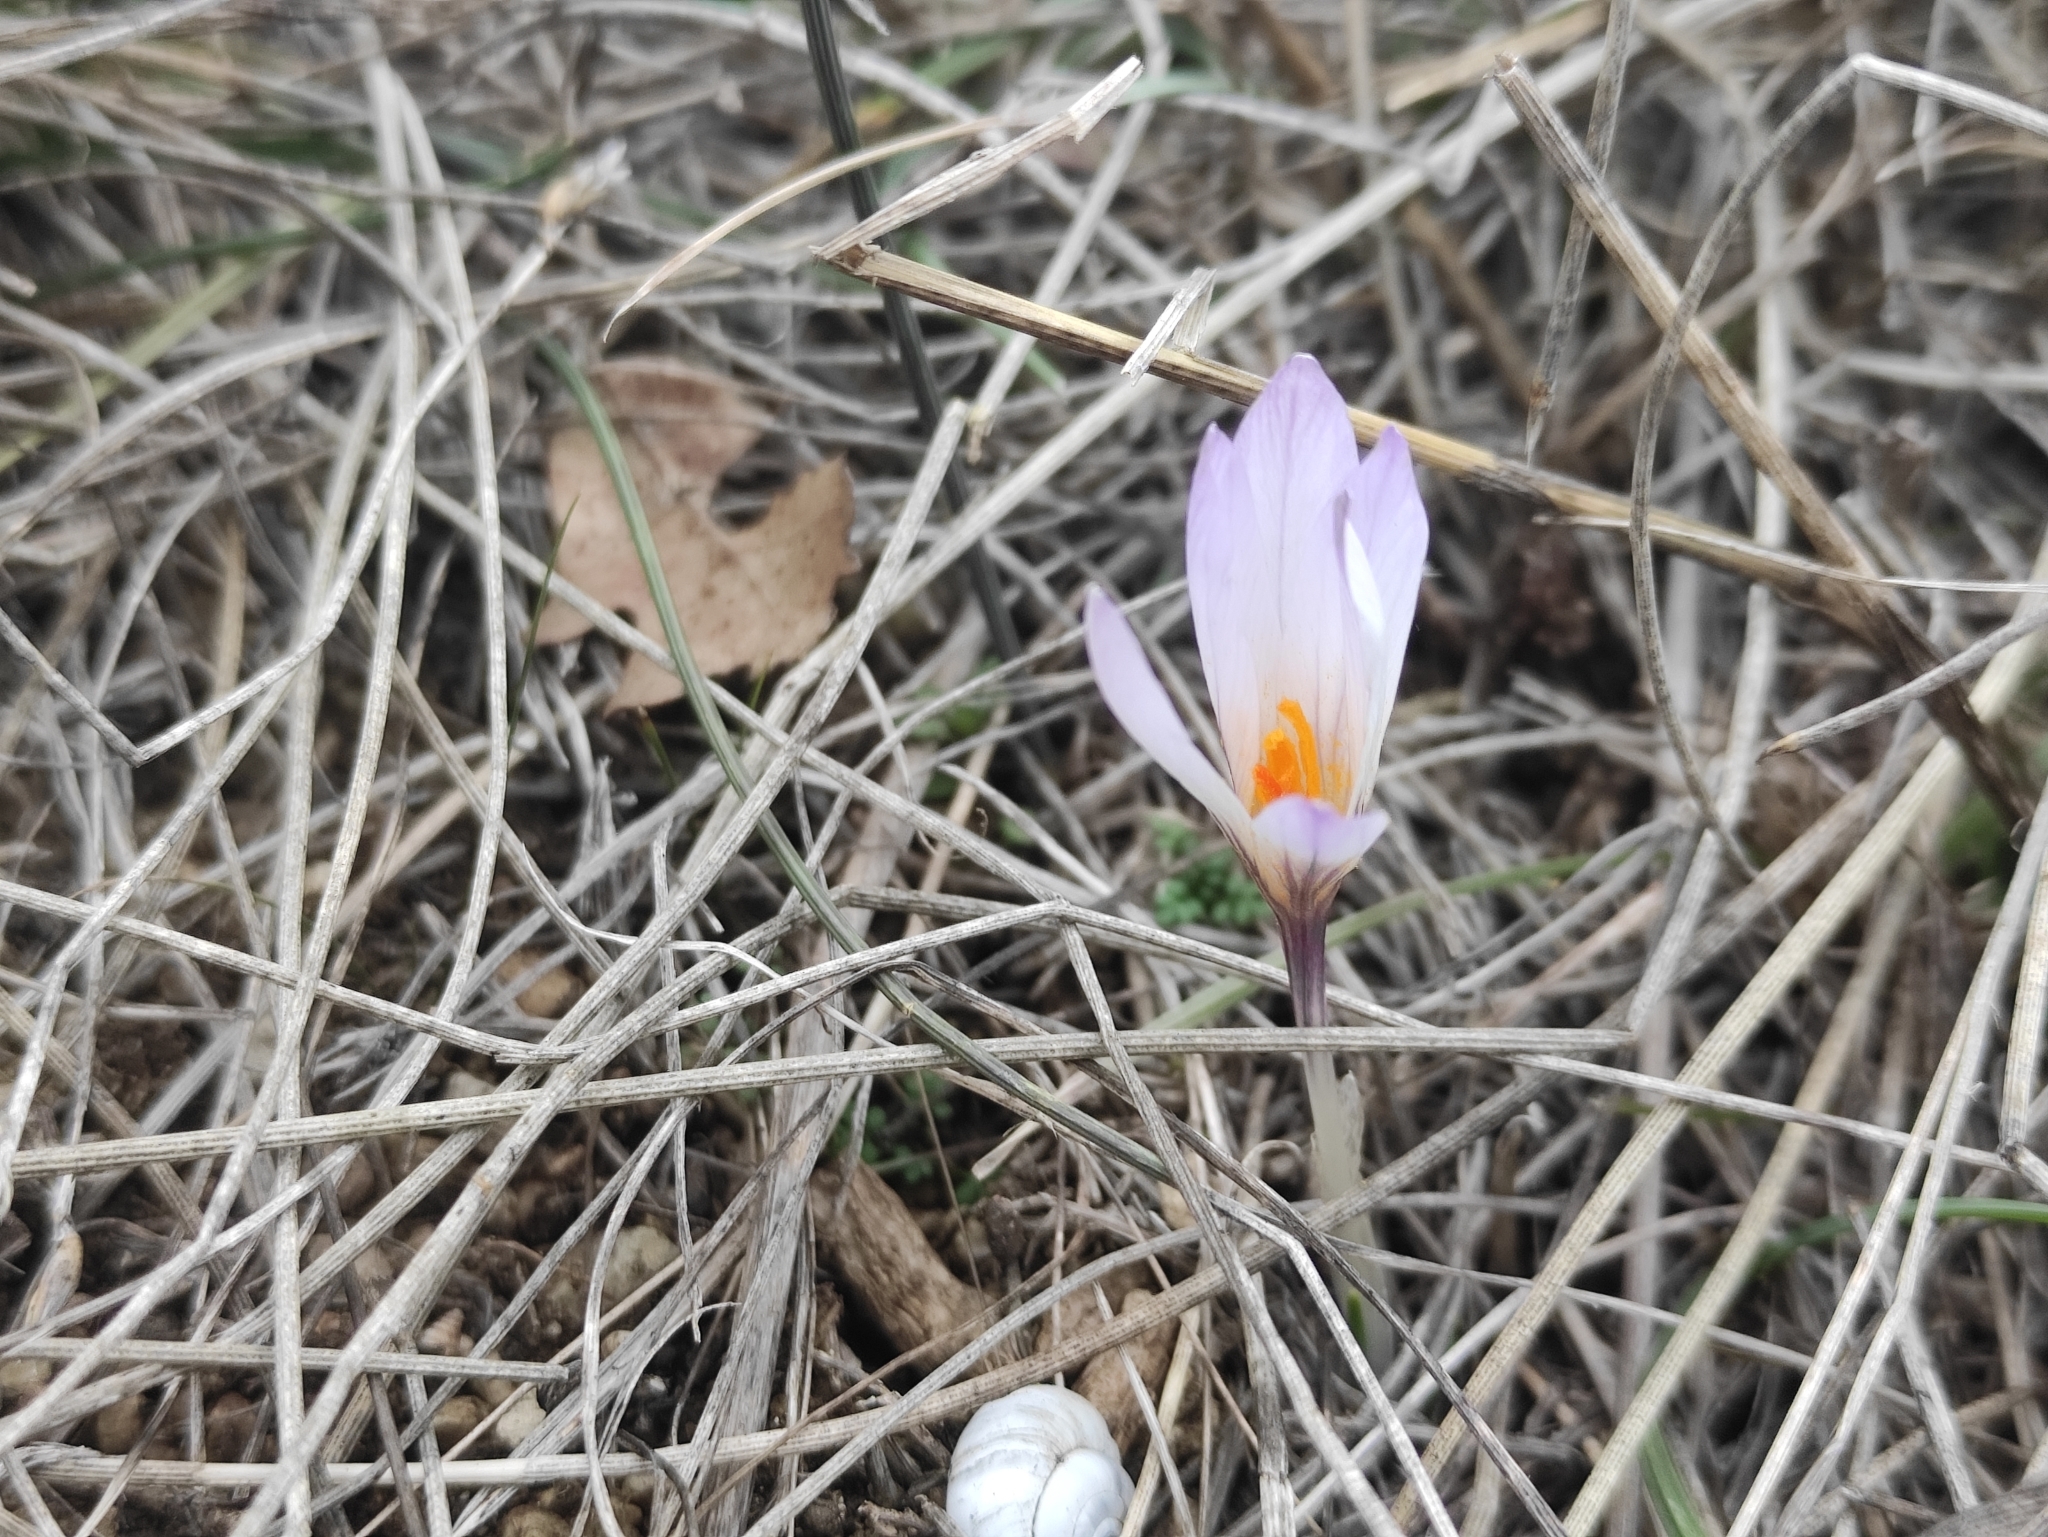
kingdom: Plantae
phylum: Tracheophyta
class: Liliopsida
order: Asparagales
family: Iridaceae
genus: Crocus
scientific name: Crocus versicolor
